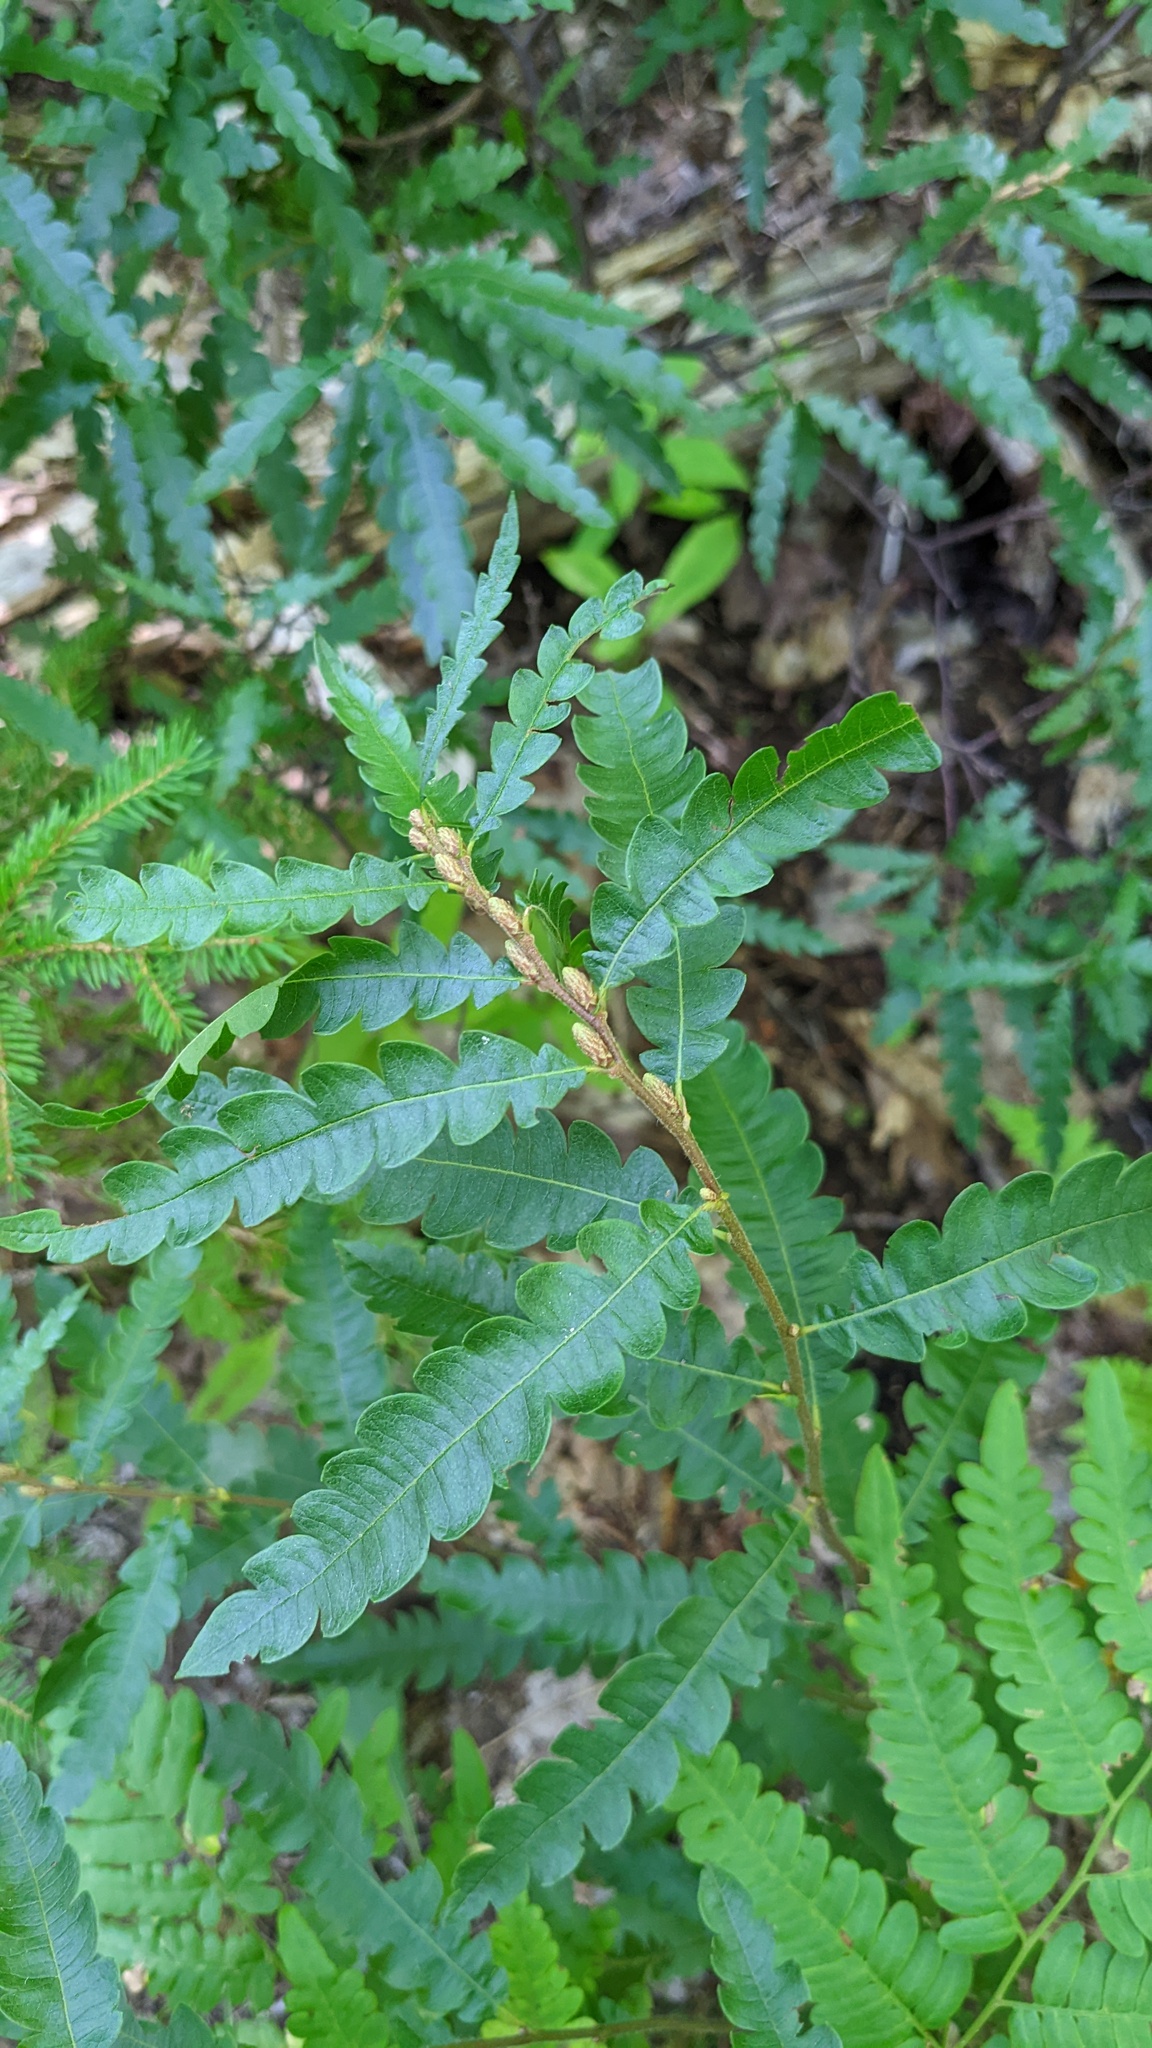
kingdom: Plantae
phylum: Tracheophyta
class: Magnoliopsida
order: Fagales
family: Myricaceae
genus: Comptonia
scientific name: Comptonia peregrina
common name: Sweet-fern
